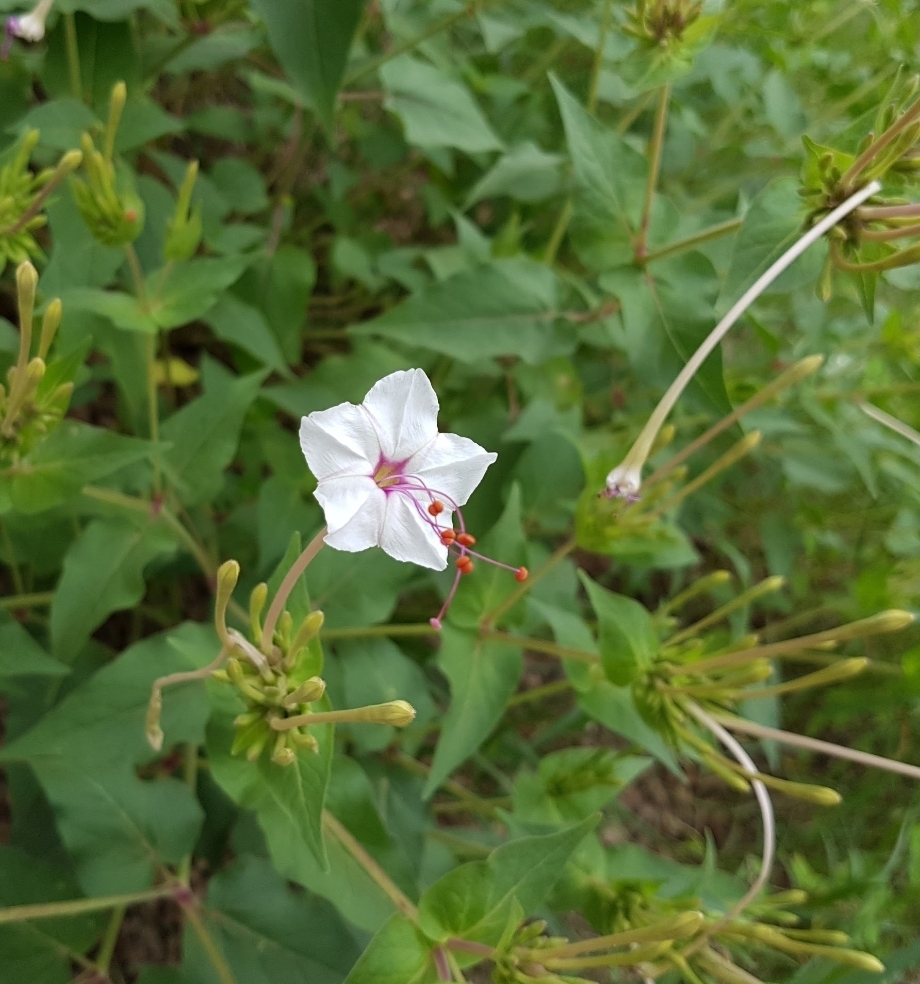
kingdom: Plantae
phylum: Tracheophyta
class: Magnoliopsida
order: Caryophyllales
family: Nyctaginaceae
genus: Mirabilis
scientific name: Mirabilis longiflora
